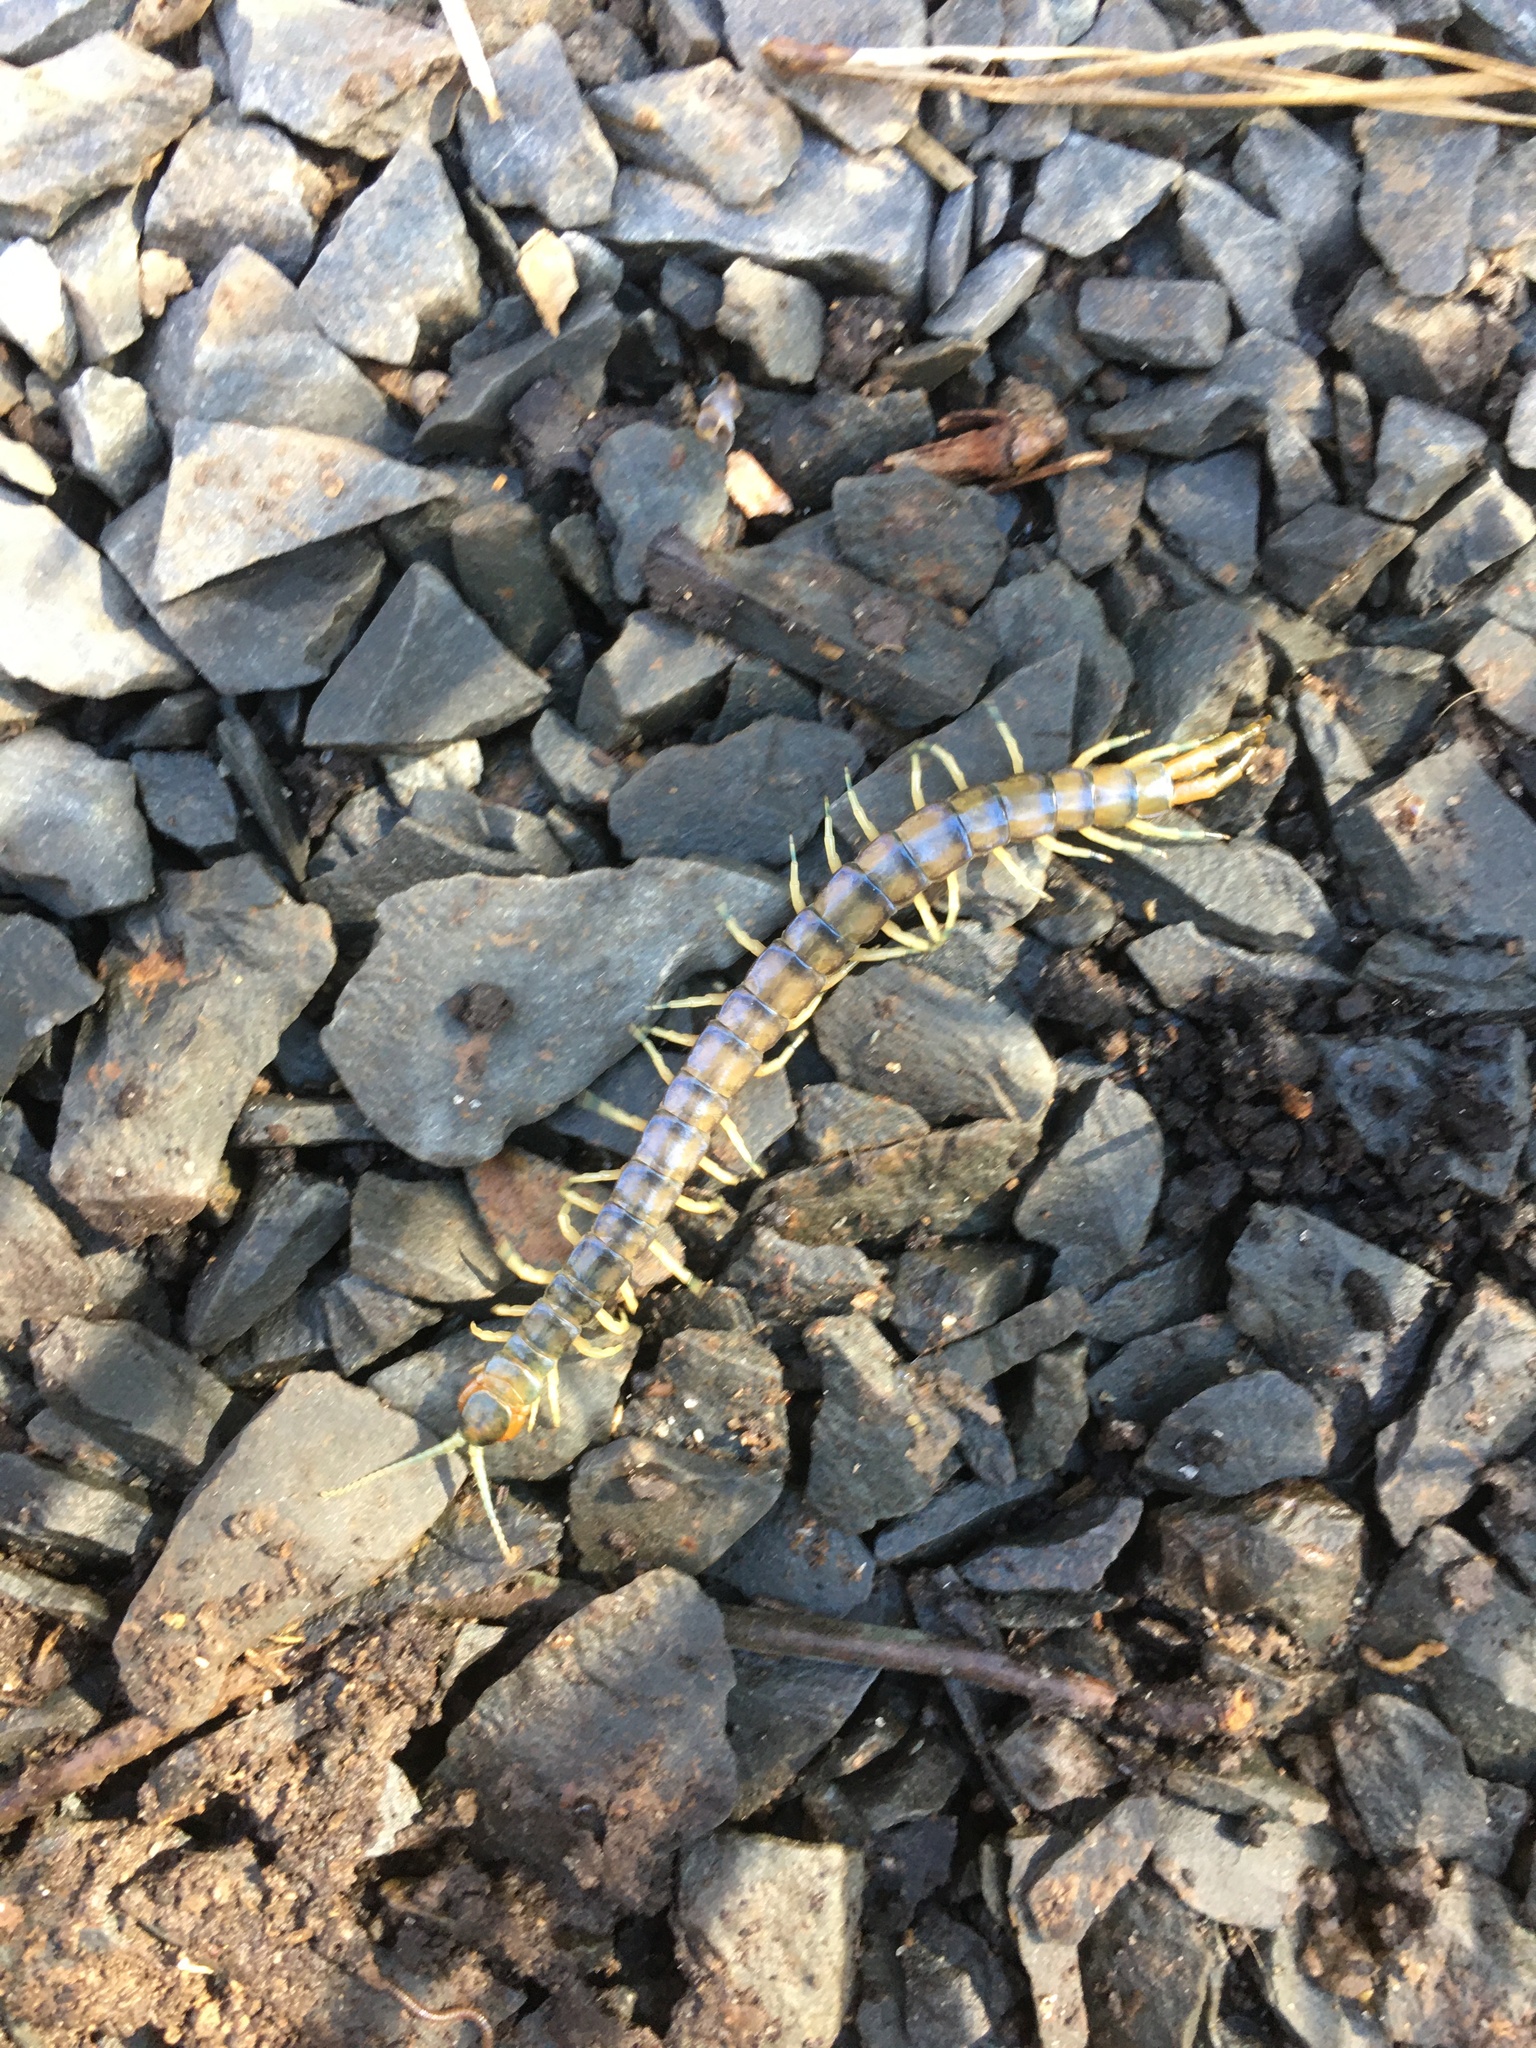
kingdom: Animalia
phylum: Arthropoda
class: Chilopoda
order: Scolopendromorpha
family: Scolopendridae
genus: Hemiscolopendra
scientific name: Hemiscolopendra marginata
